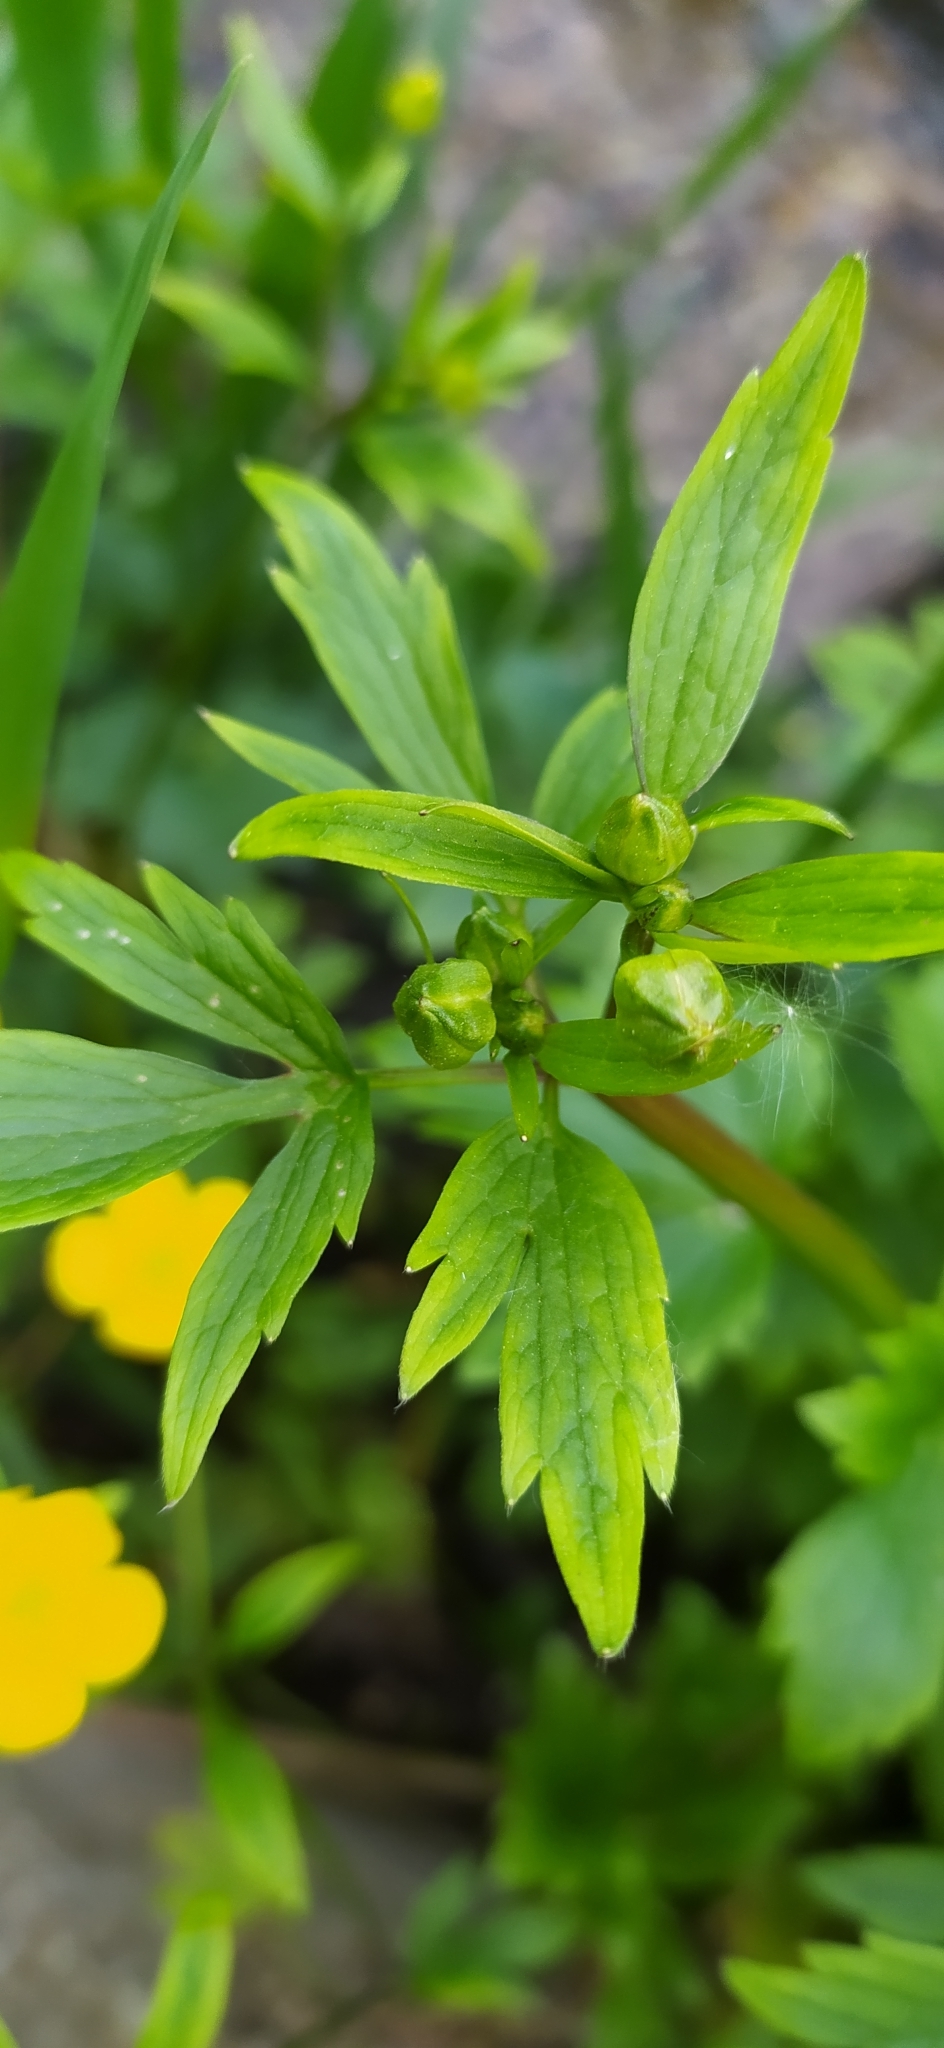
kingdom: Plantae
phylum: Tracheophyta
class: Magnoliopsida
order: Ranunculales
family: Ranunculaceae
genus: Ranunculus
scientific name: Ranunculus repens
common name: Creeping buttercup
